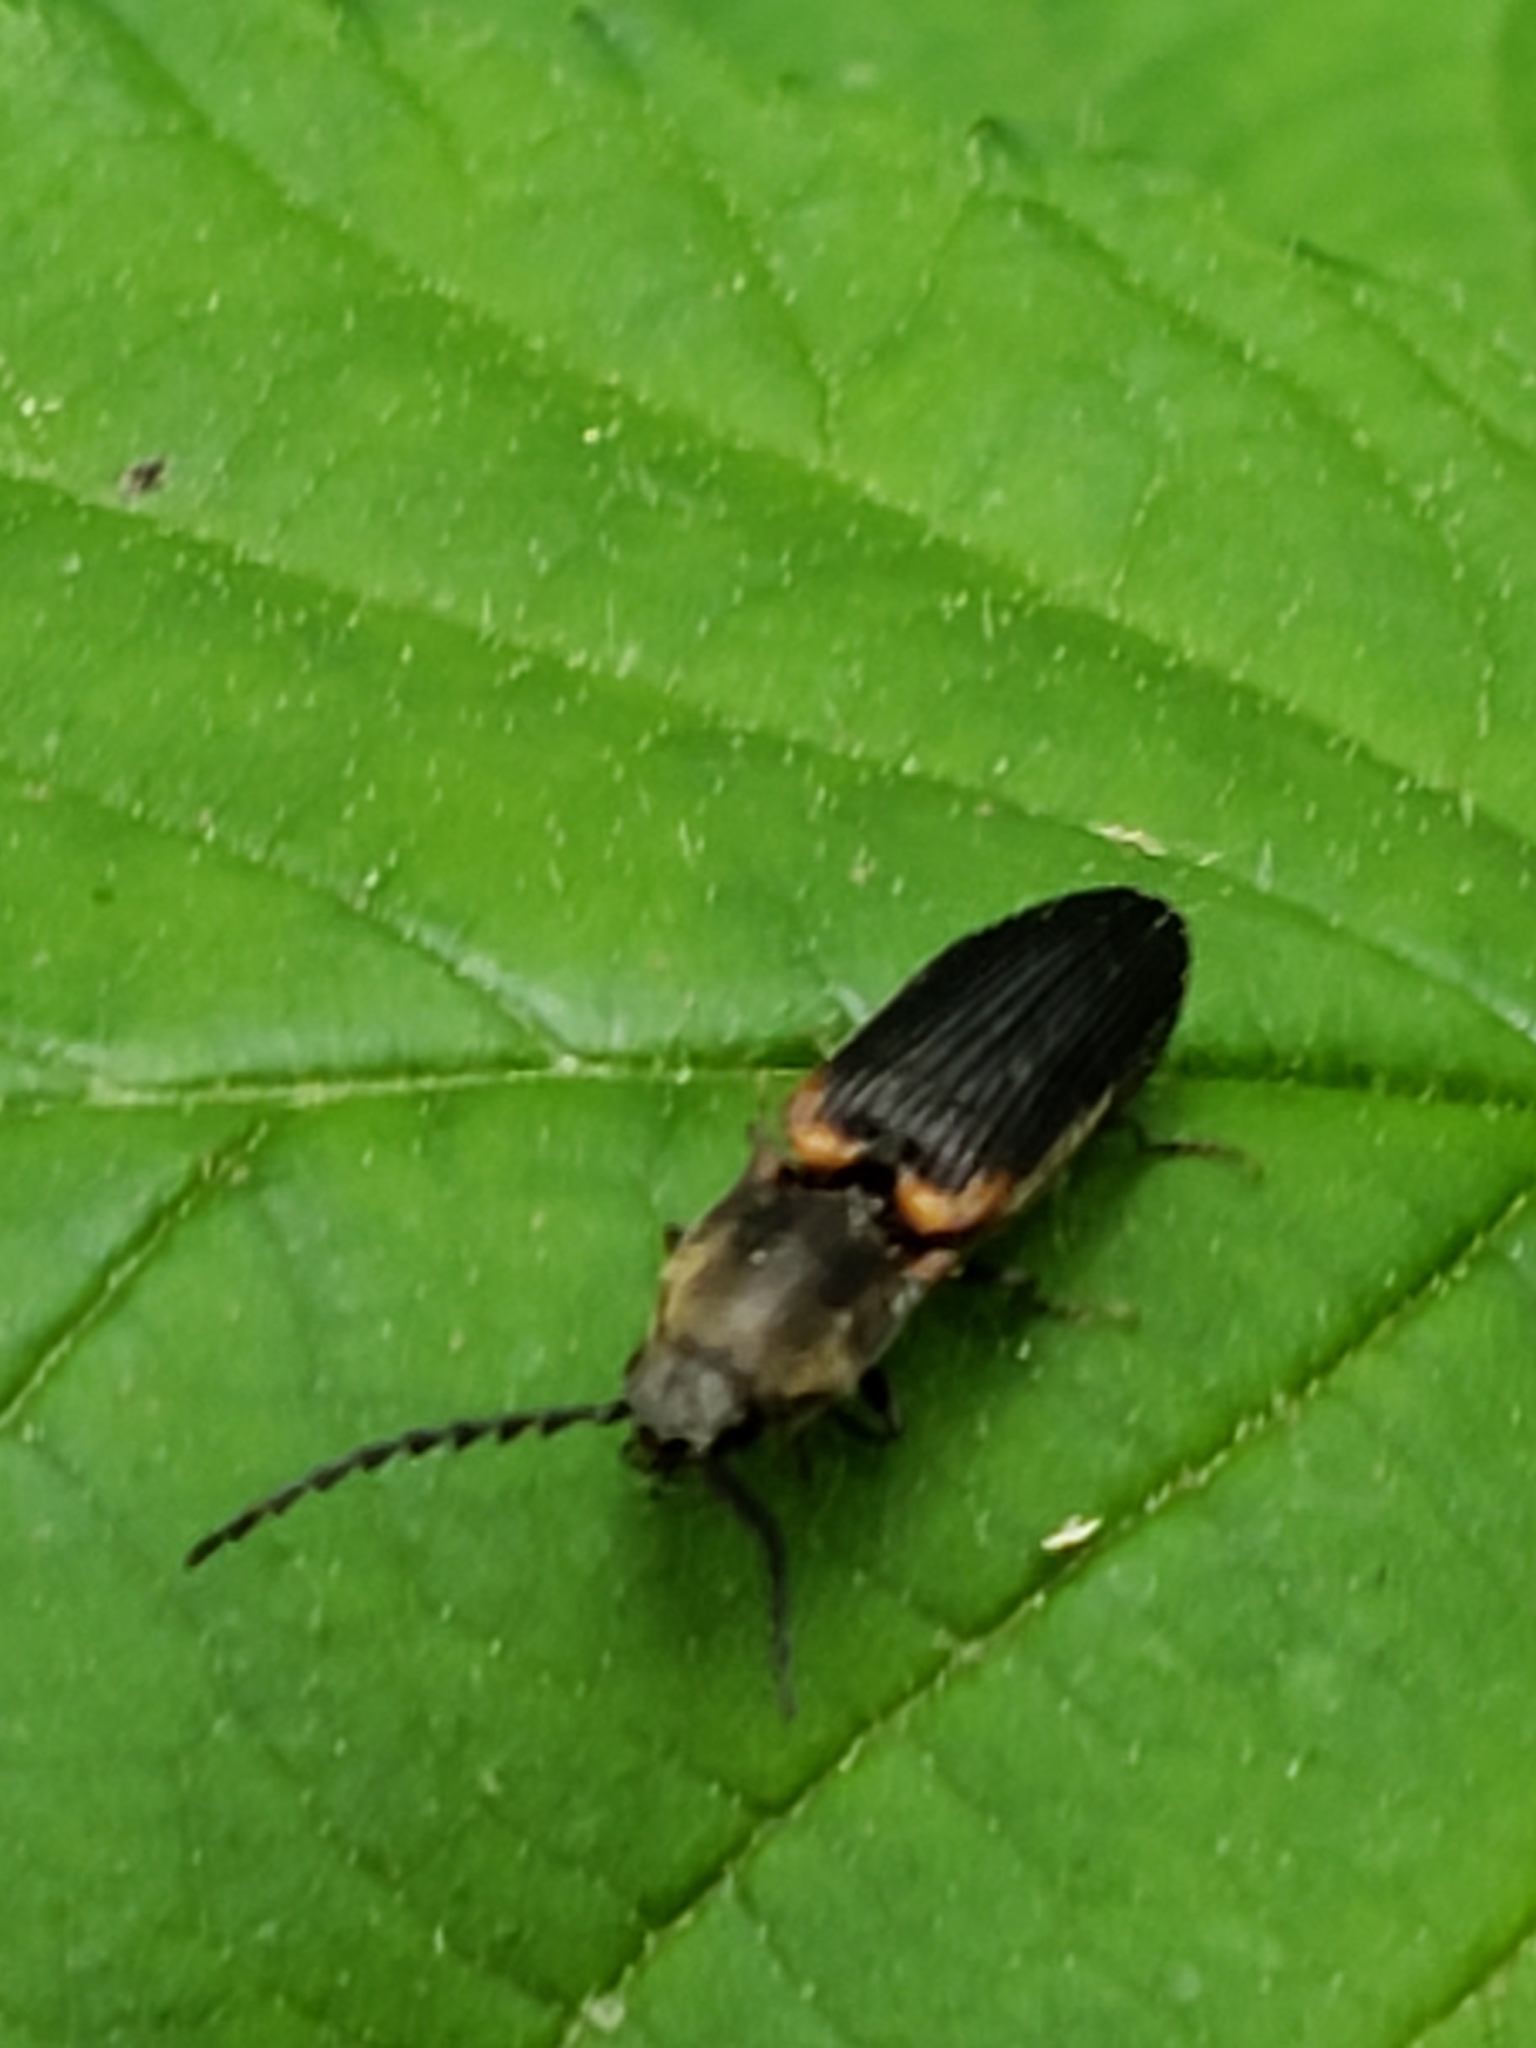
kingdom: Animalia
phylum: Arthropoda
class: Insecta
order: Coleoptera
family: Elateridae
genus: Athous
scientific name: Athous scapularis
